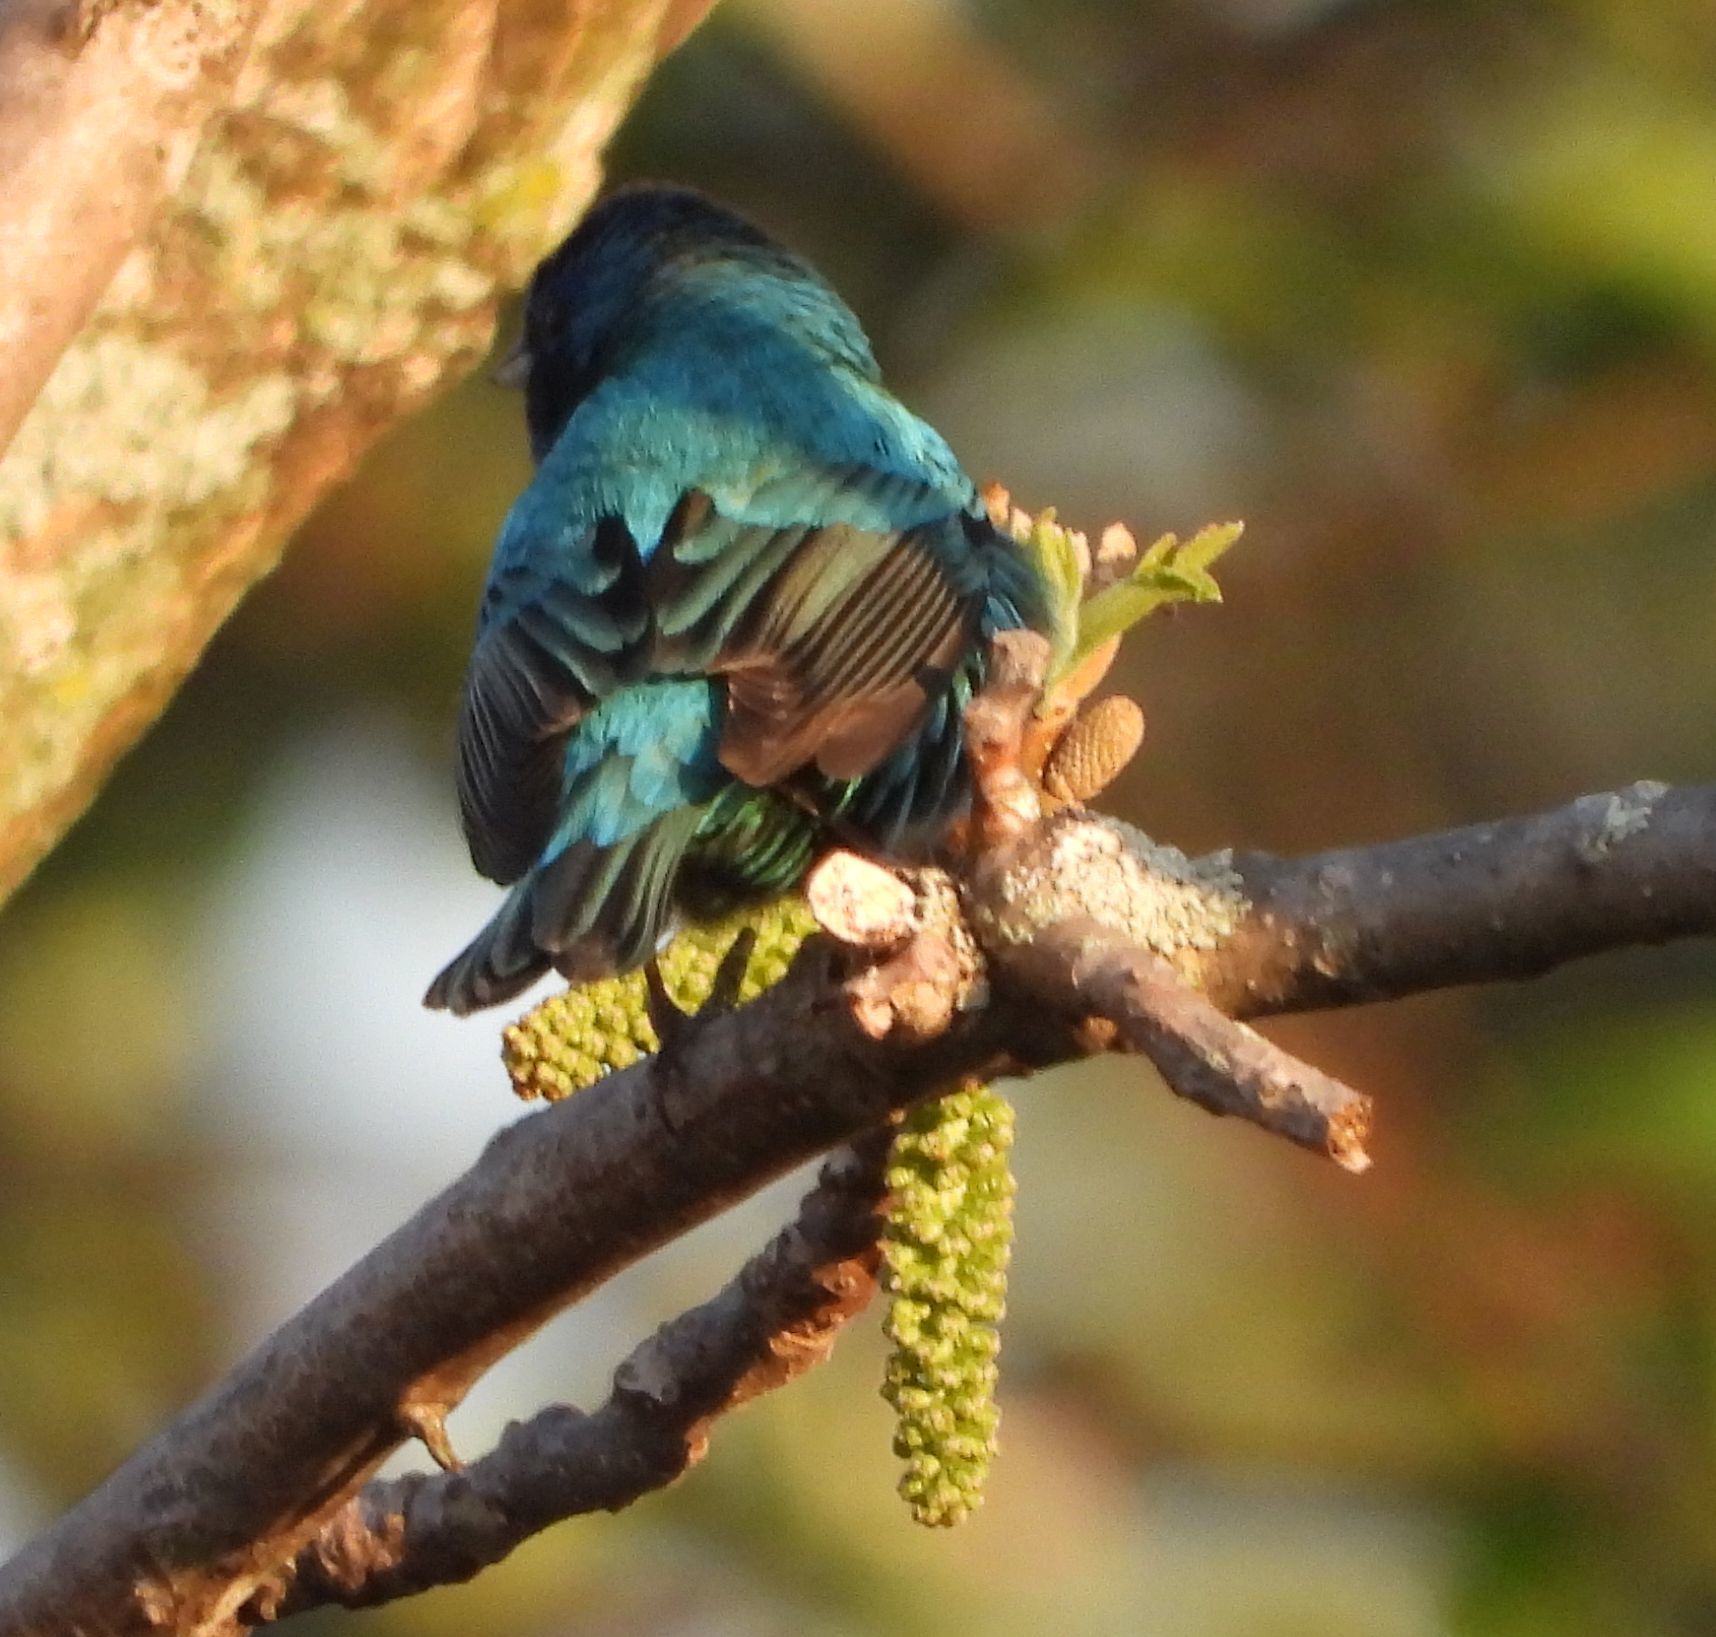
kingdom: Animalia
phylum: Chordata
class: Aves
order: Passeriformes
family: Cardinalidae
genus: Passerina
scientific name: Passerina cyanea
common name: Indigo bunting
